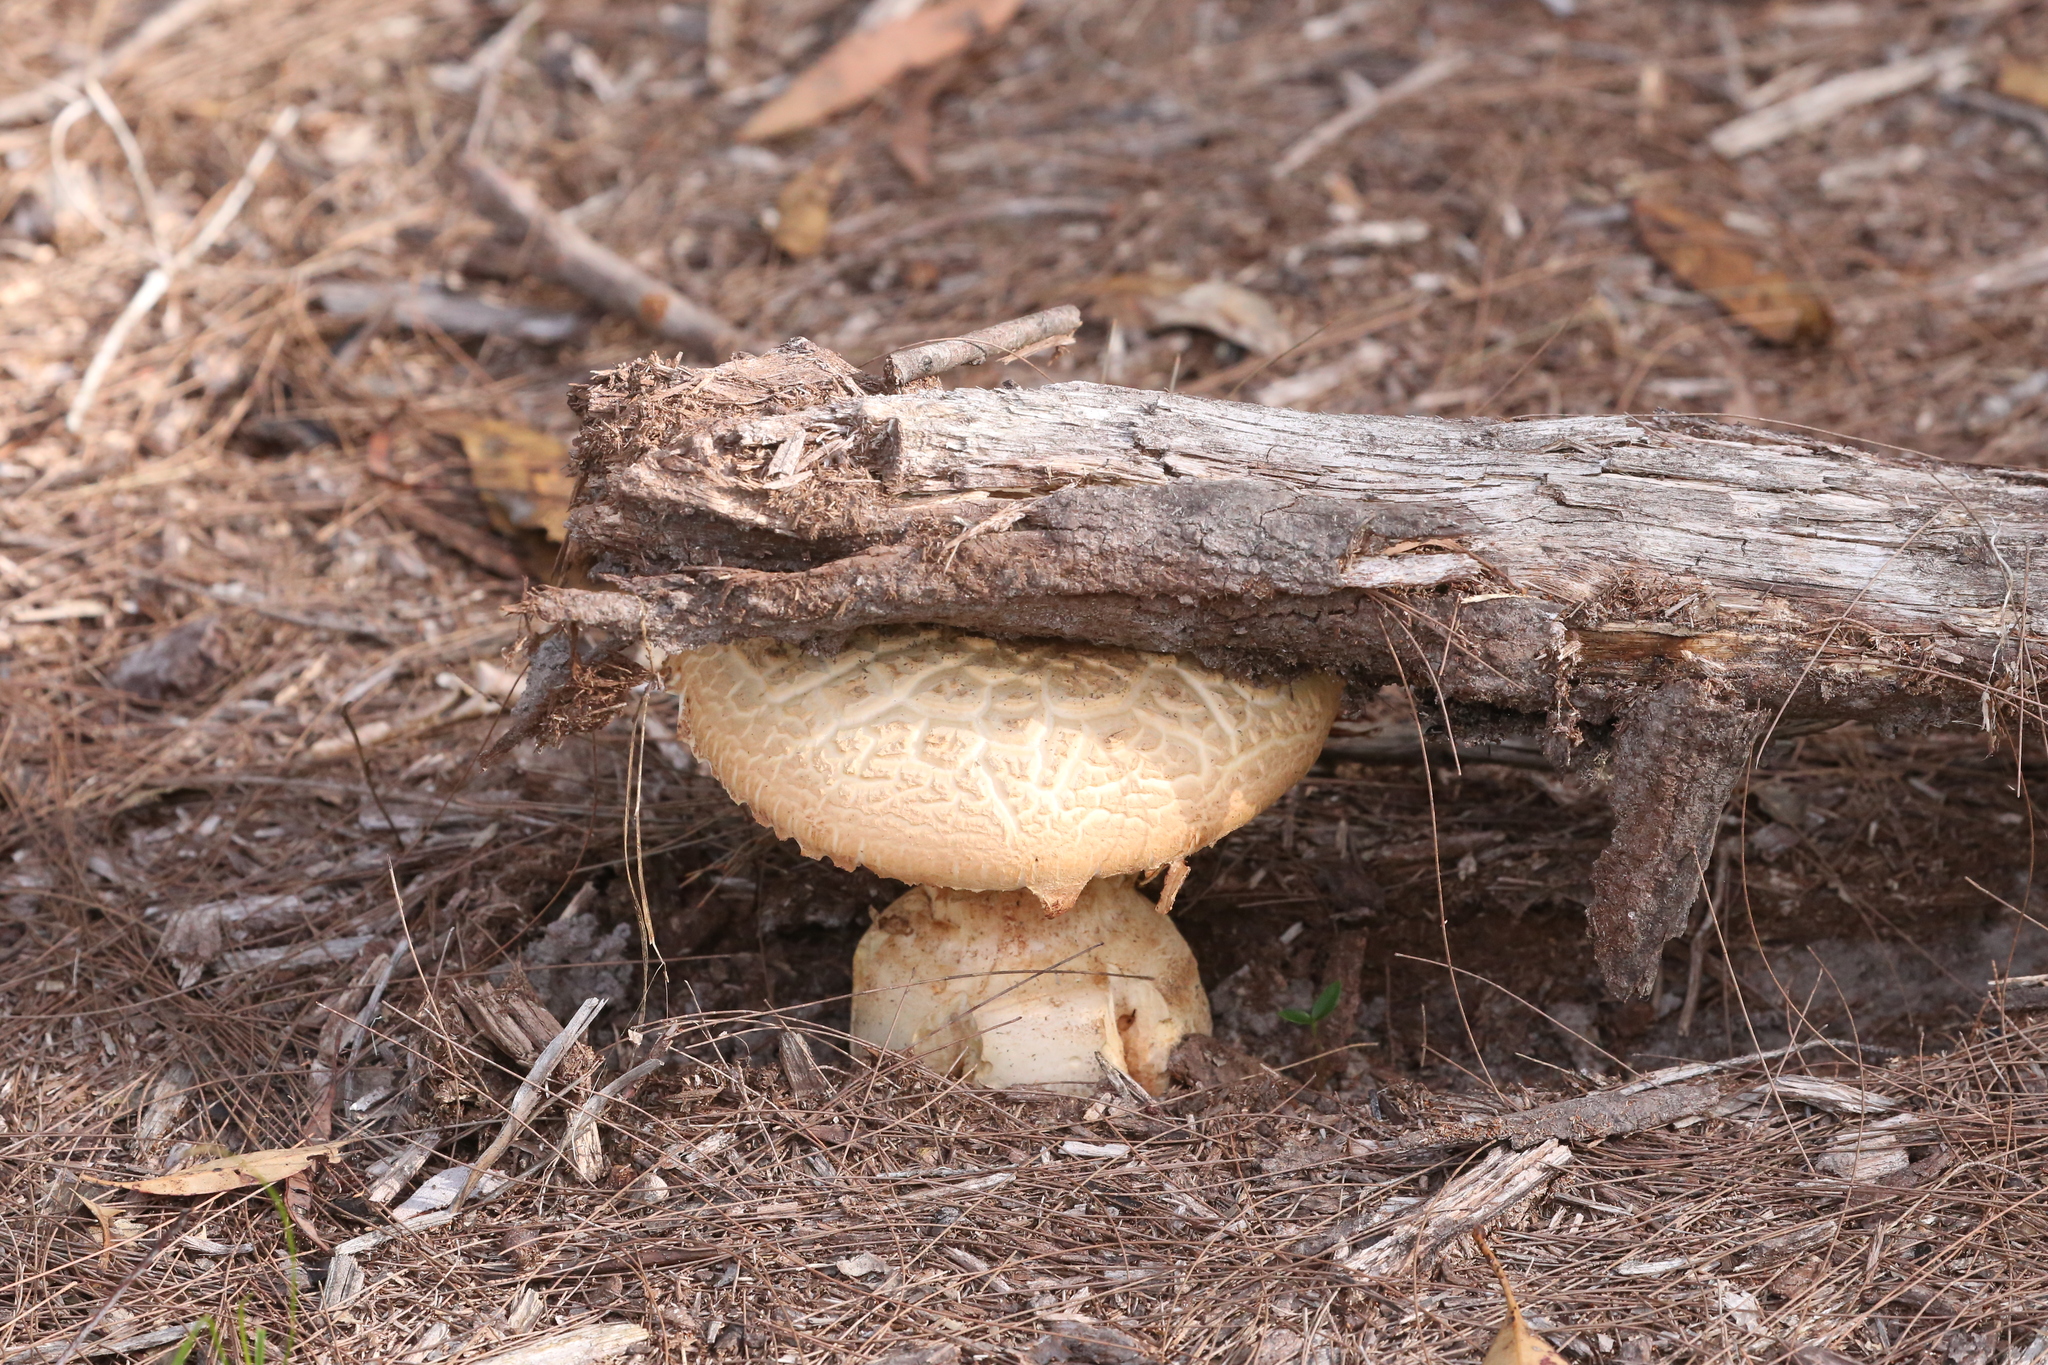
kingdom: Fungi
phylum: Basidiomycota
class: Agaricomycetes
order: Agaricales
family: Amanitaceae
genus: Amanita
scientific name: Amanita ochrophylla
